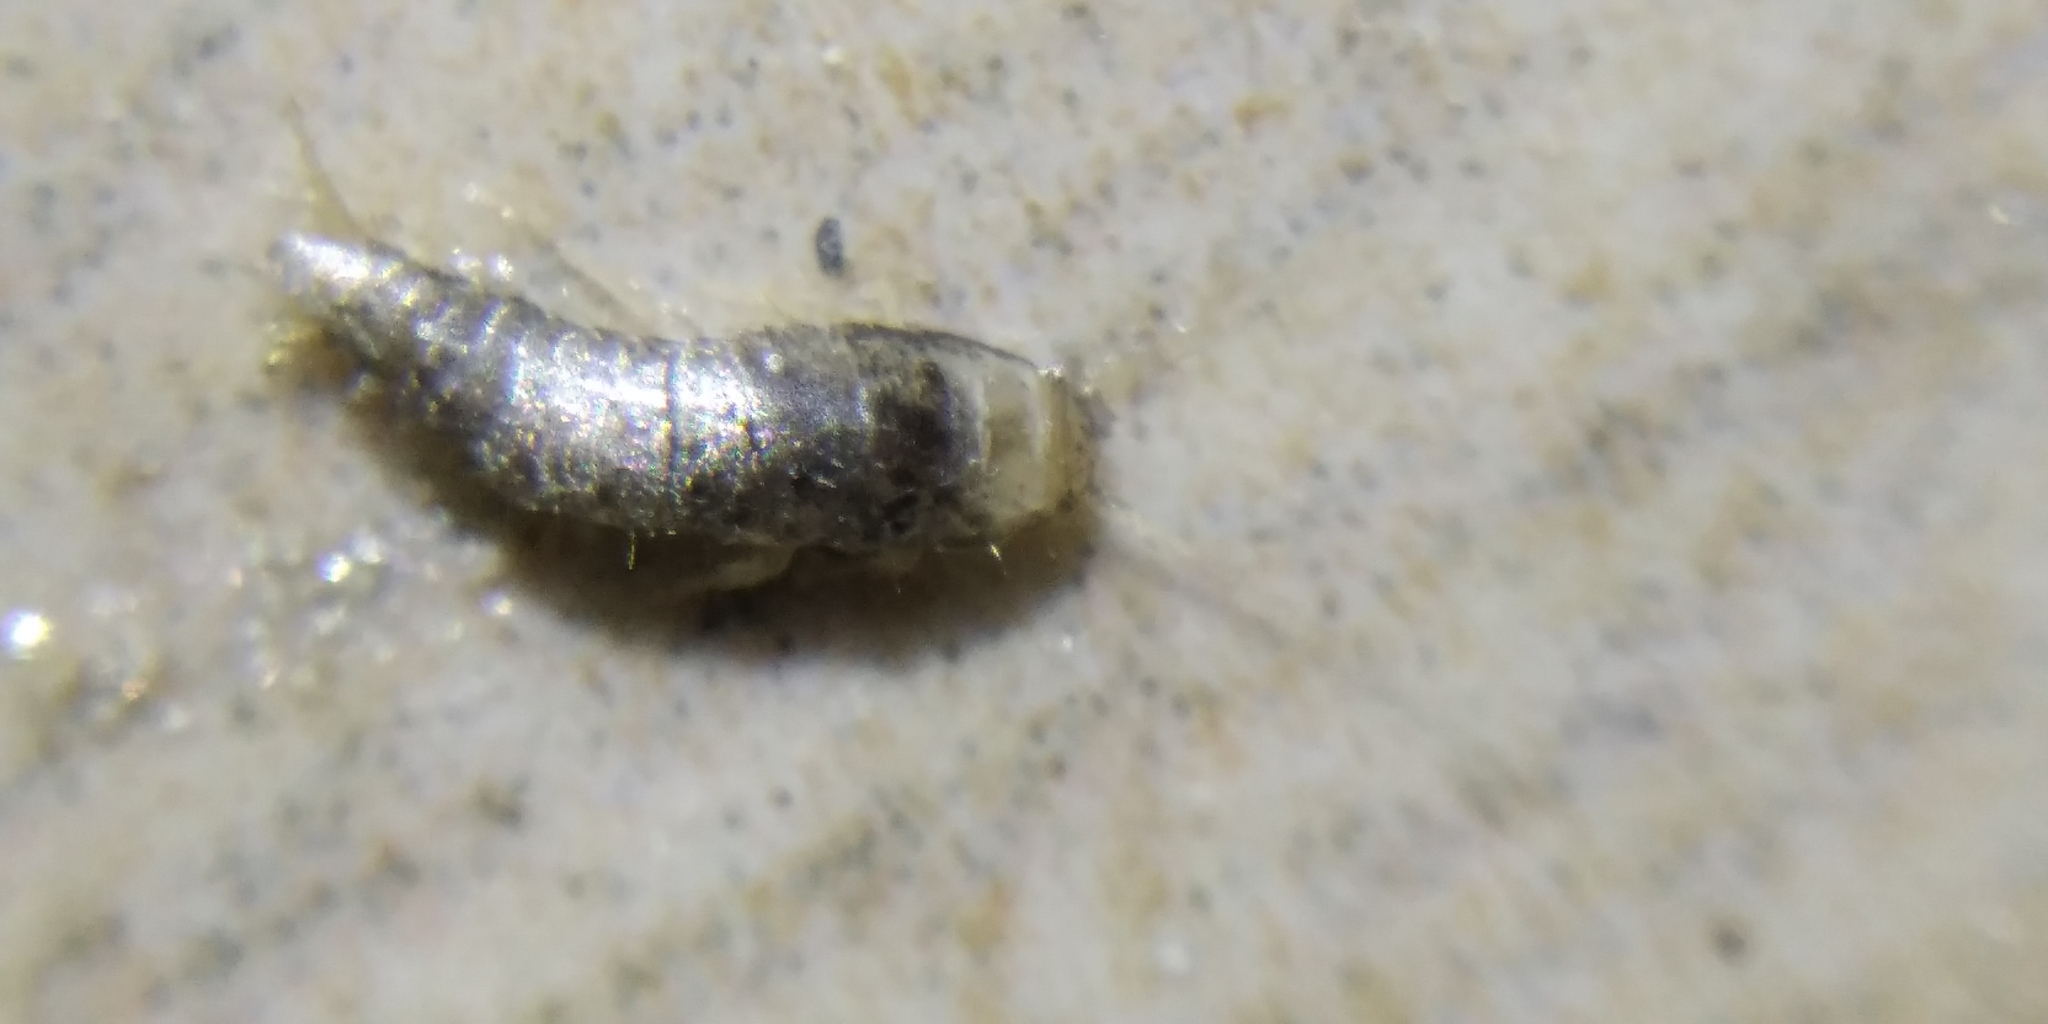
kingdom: Animalia
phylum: Arthropoda
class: Insecta
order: Zygentoma
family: Lepismatidae
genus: Lepisma
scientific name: Lepisma saccharinum
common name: Silverfish
